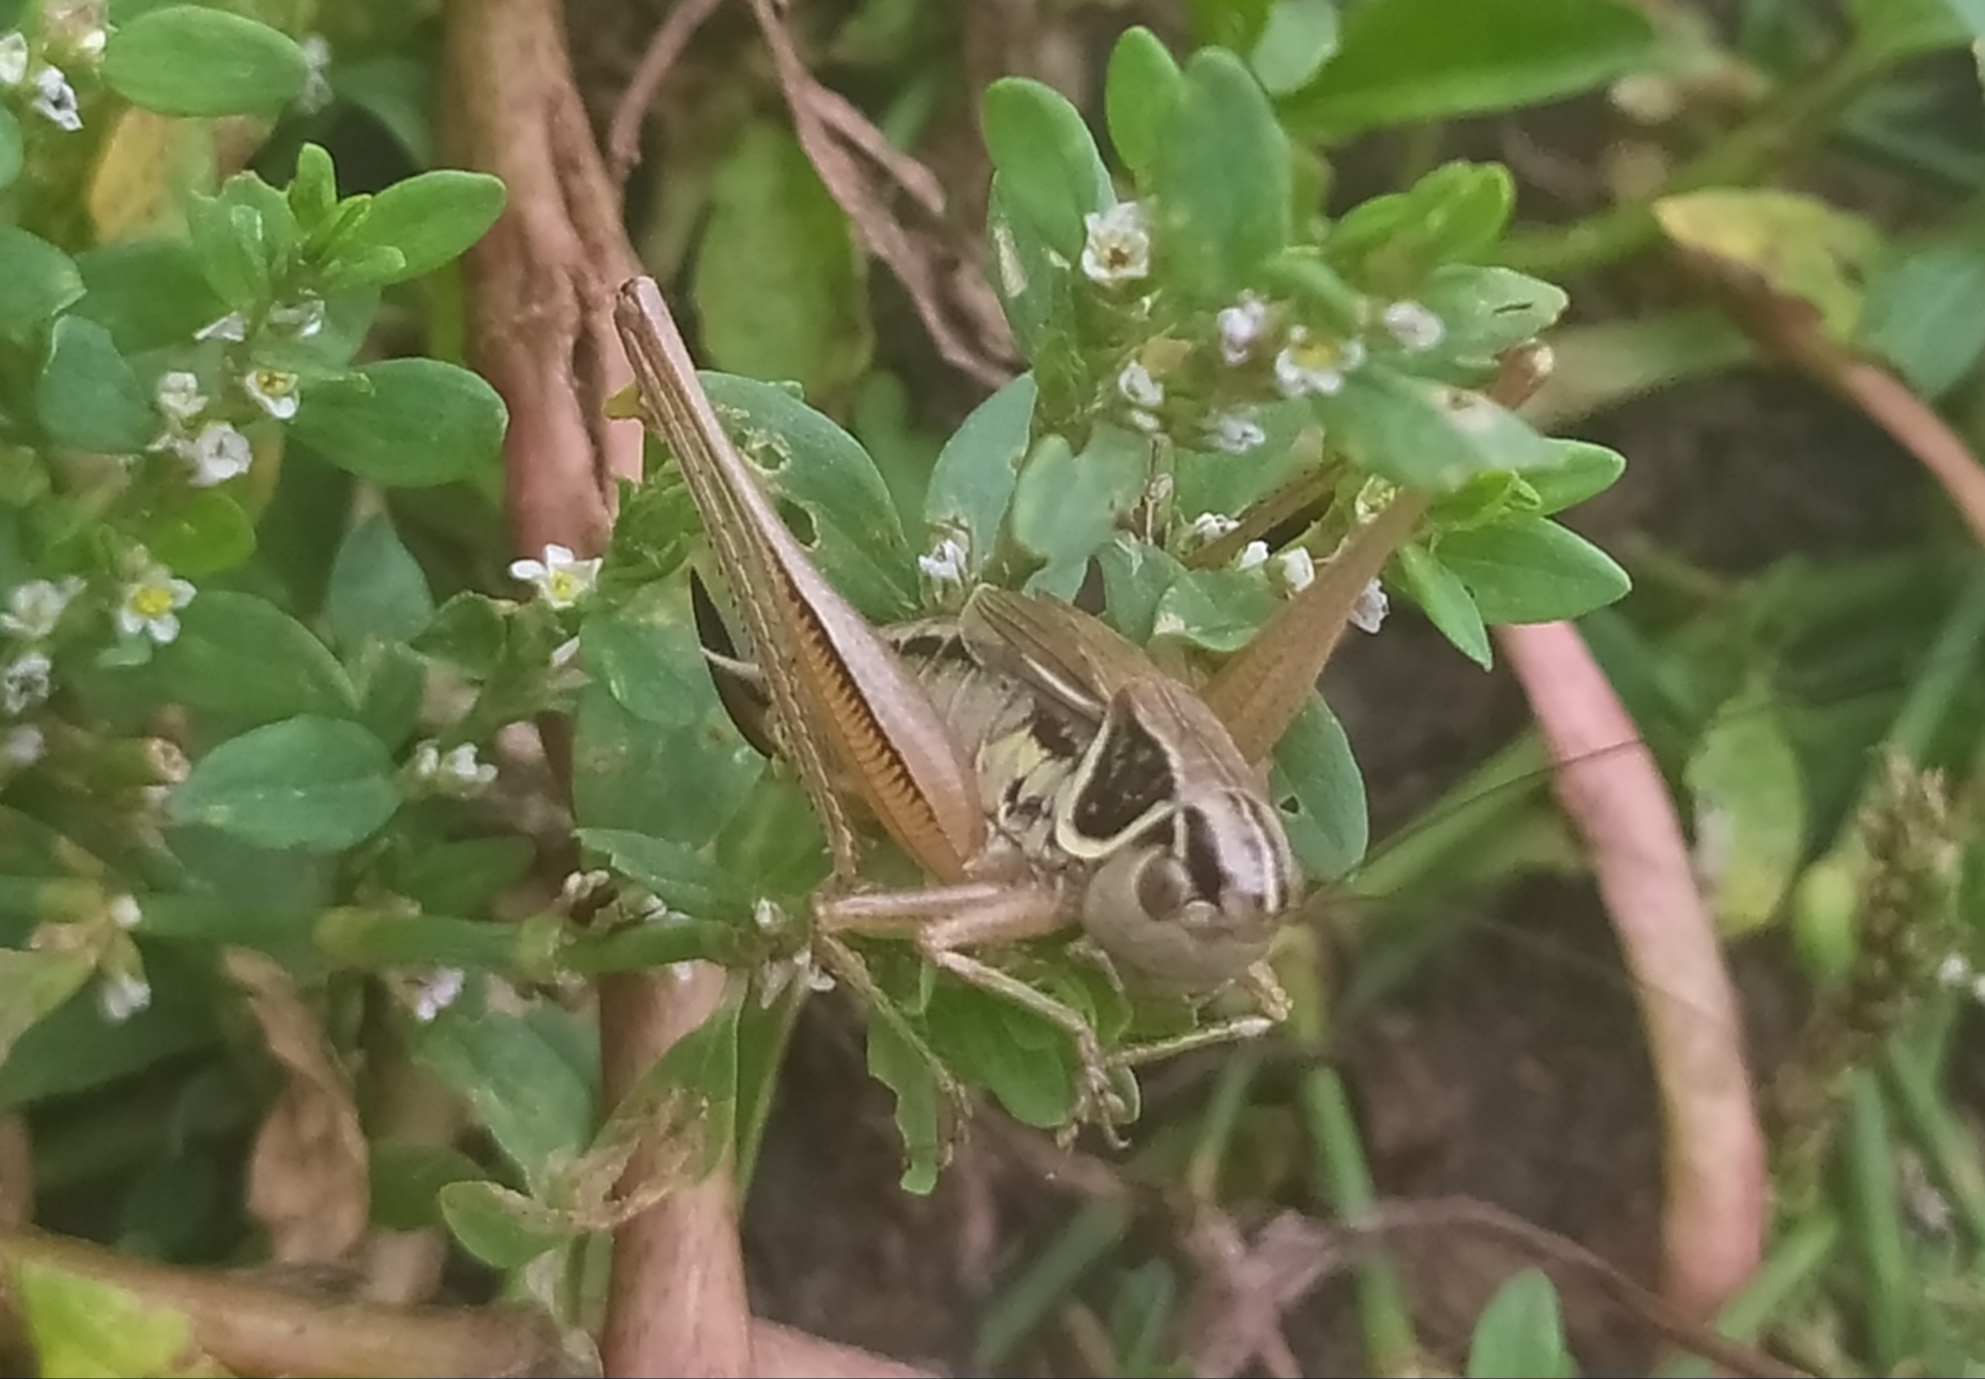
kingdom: Animalia
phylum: Arthropoda
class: Insecta
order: Orthoptera
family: Tettigoniidae
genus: Roeseliana
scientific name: Roeseliana roeselii
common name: Roesel's bush cricket
